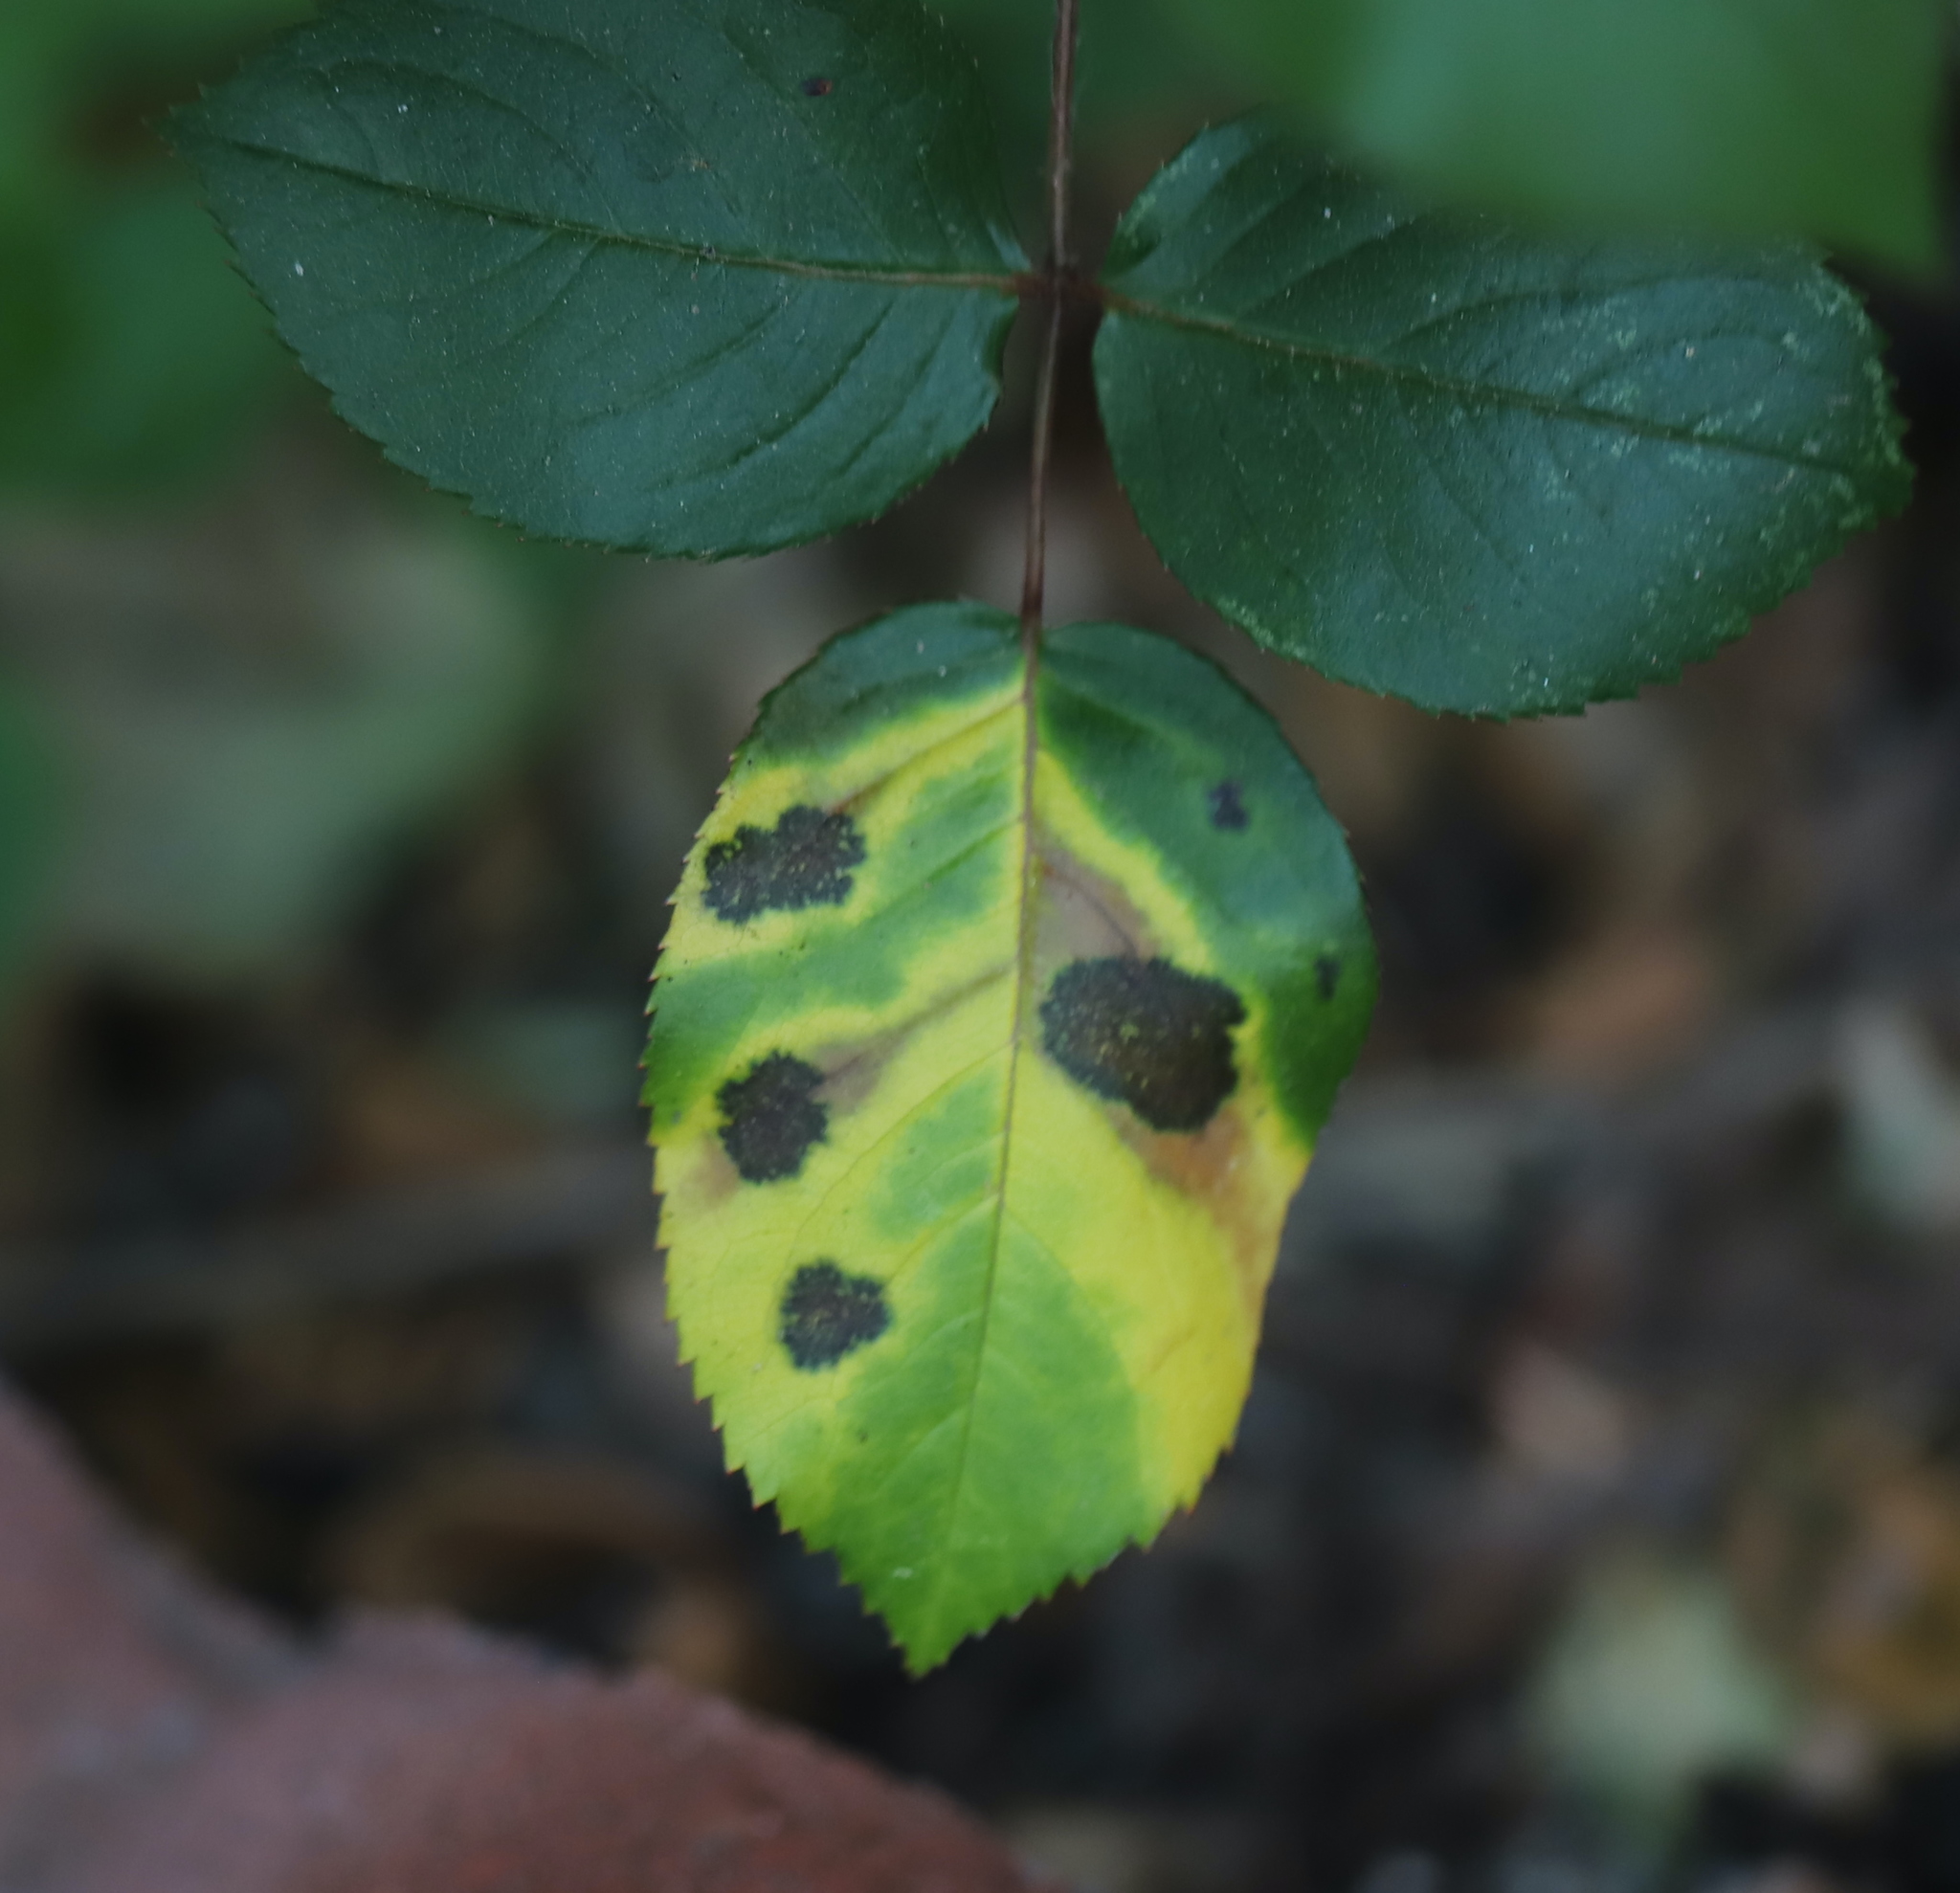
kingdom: Fungi
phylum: Ascomycota
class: Leotiomycetes
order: Helotiales
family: Drepanopezizaceae
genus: Diplocarpon
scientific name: Diplocarpon rosae
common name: Rose black-spot
